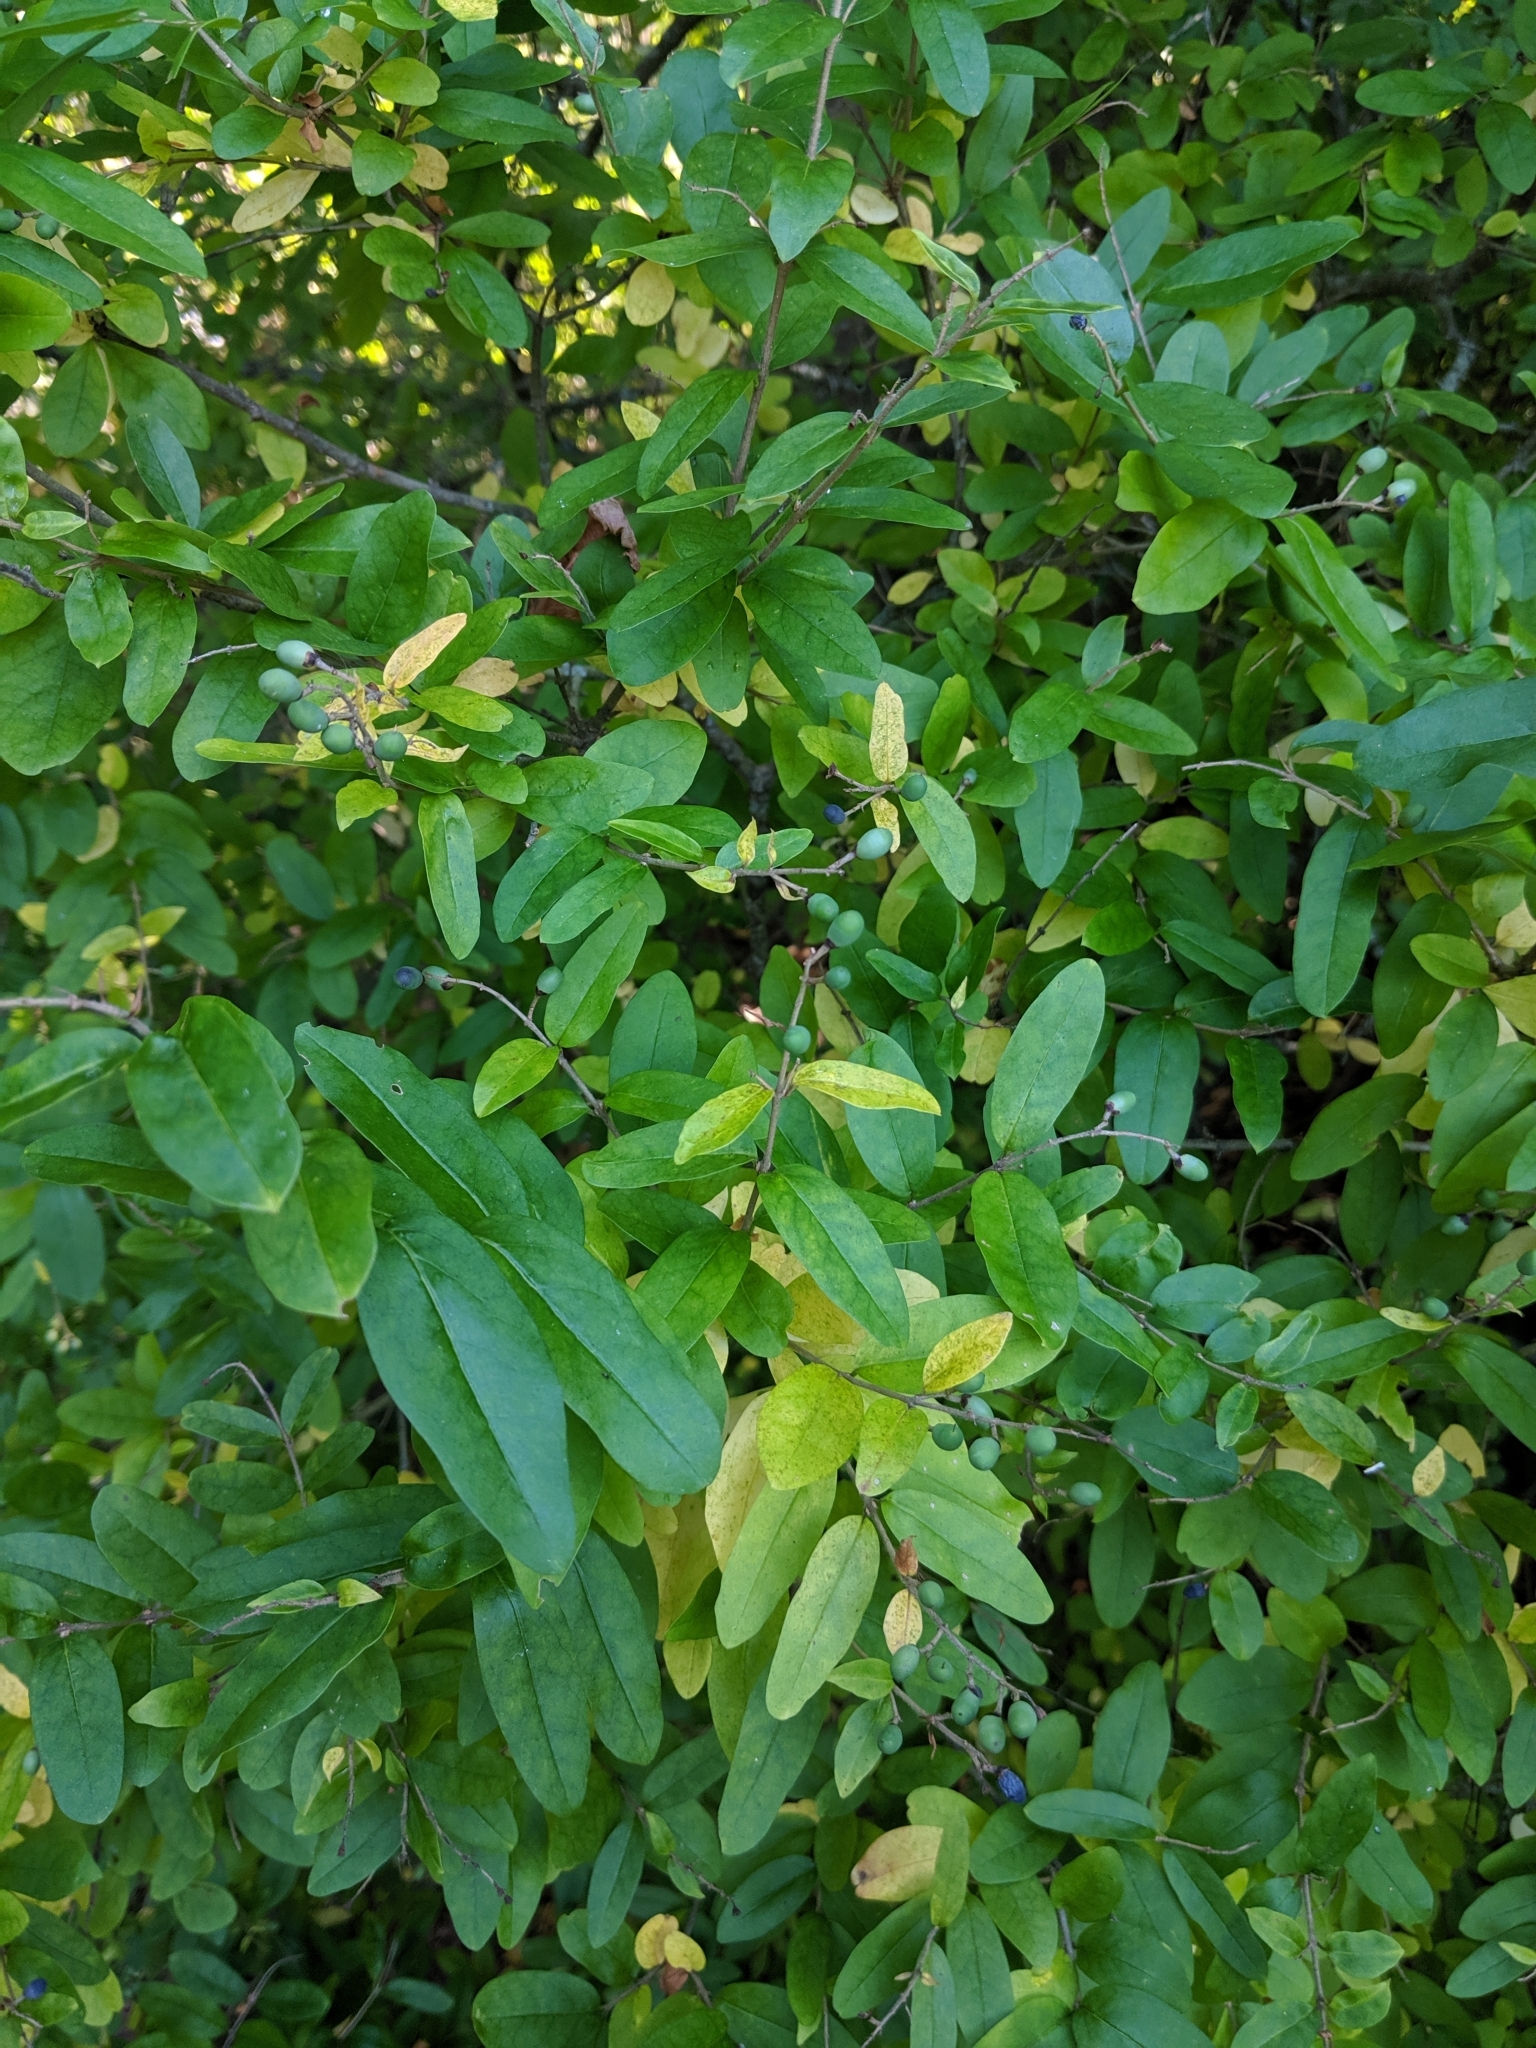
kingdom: Plantae
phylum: Tracheophyta
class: Magnoliopsida
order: Lamiales
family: Oleaceae
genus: Ligustrum
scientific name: Ligustrum obtusifolium
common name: Border privet
